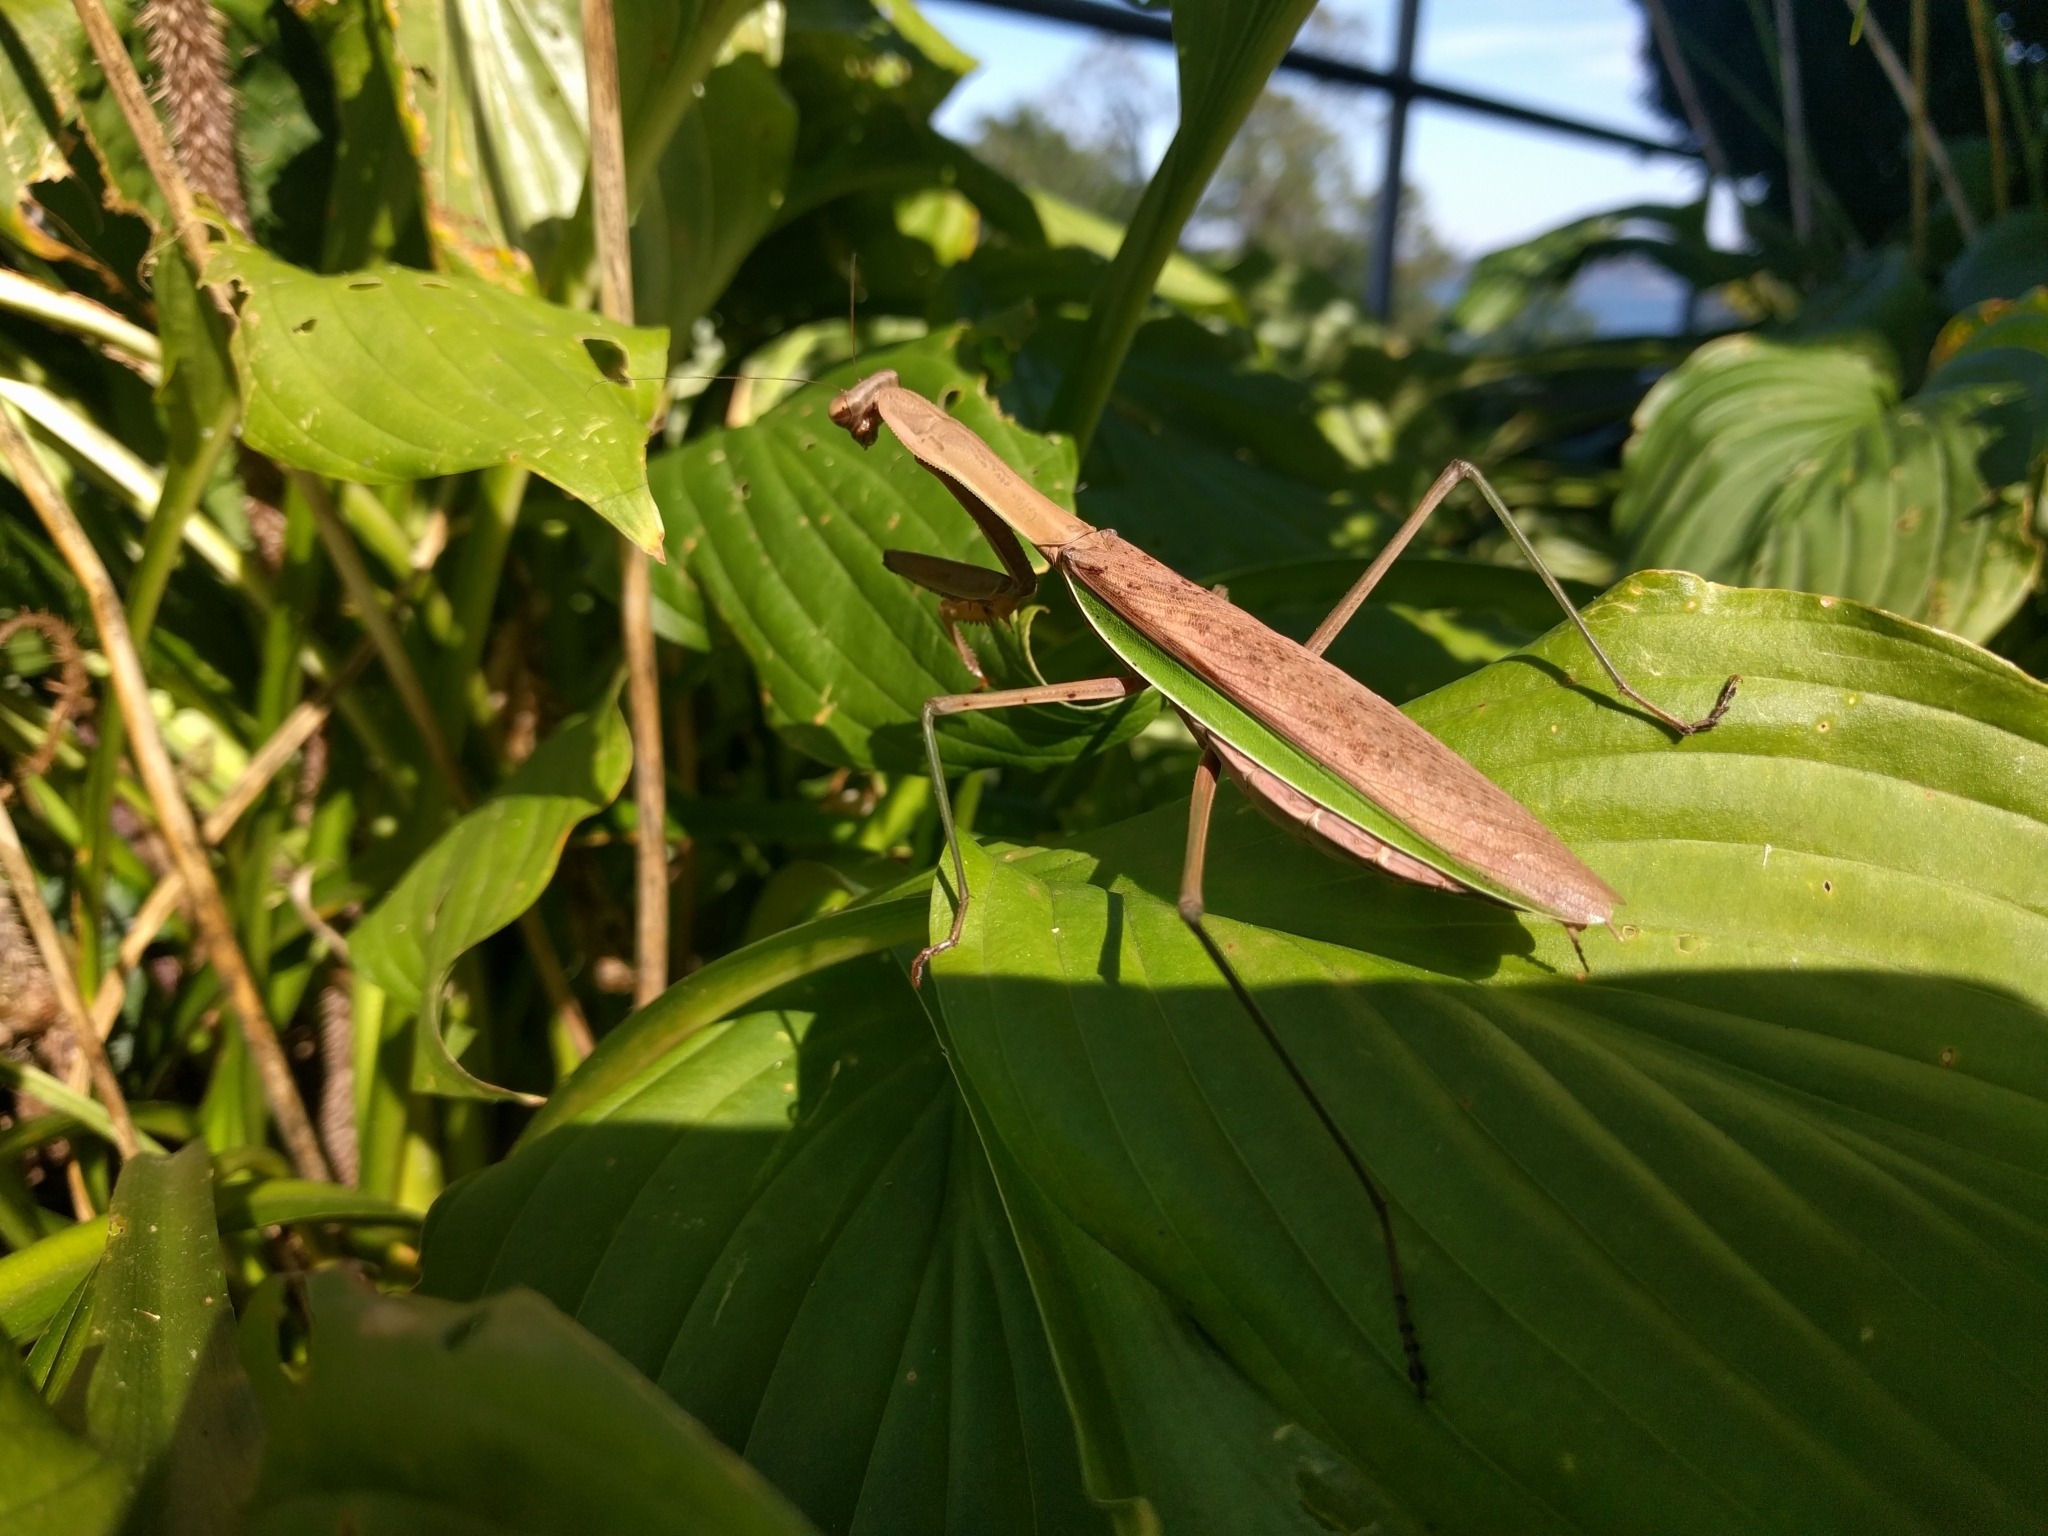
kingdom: Animalia
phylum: Arthropoda
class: Insecta
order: Mantodea
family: Mantidae
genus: Tenodera
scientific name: Tenodera sinensis
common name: Chinese mantis
